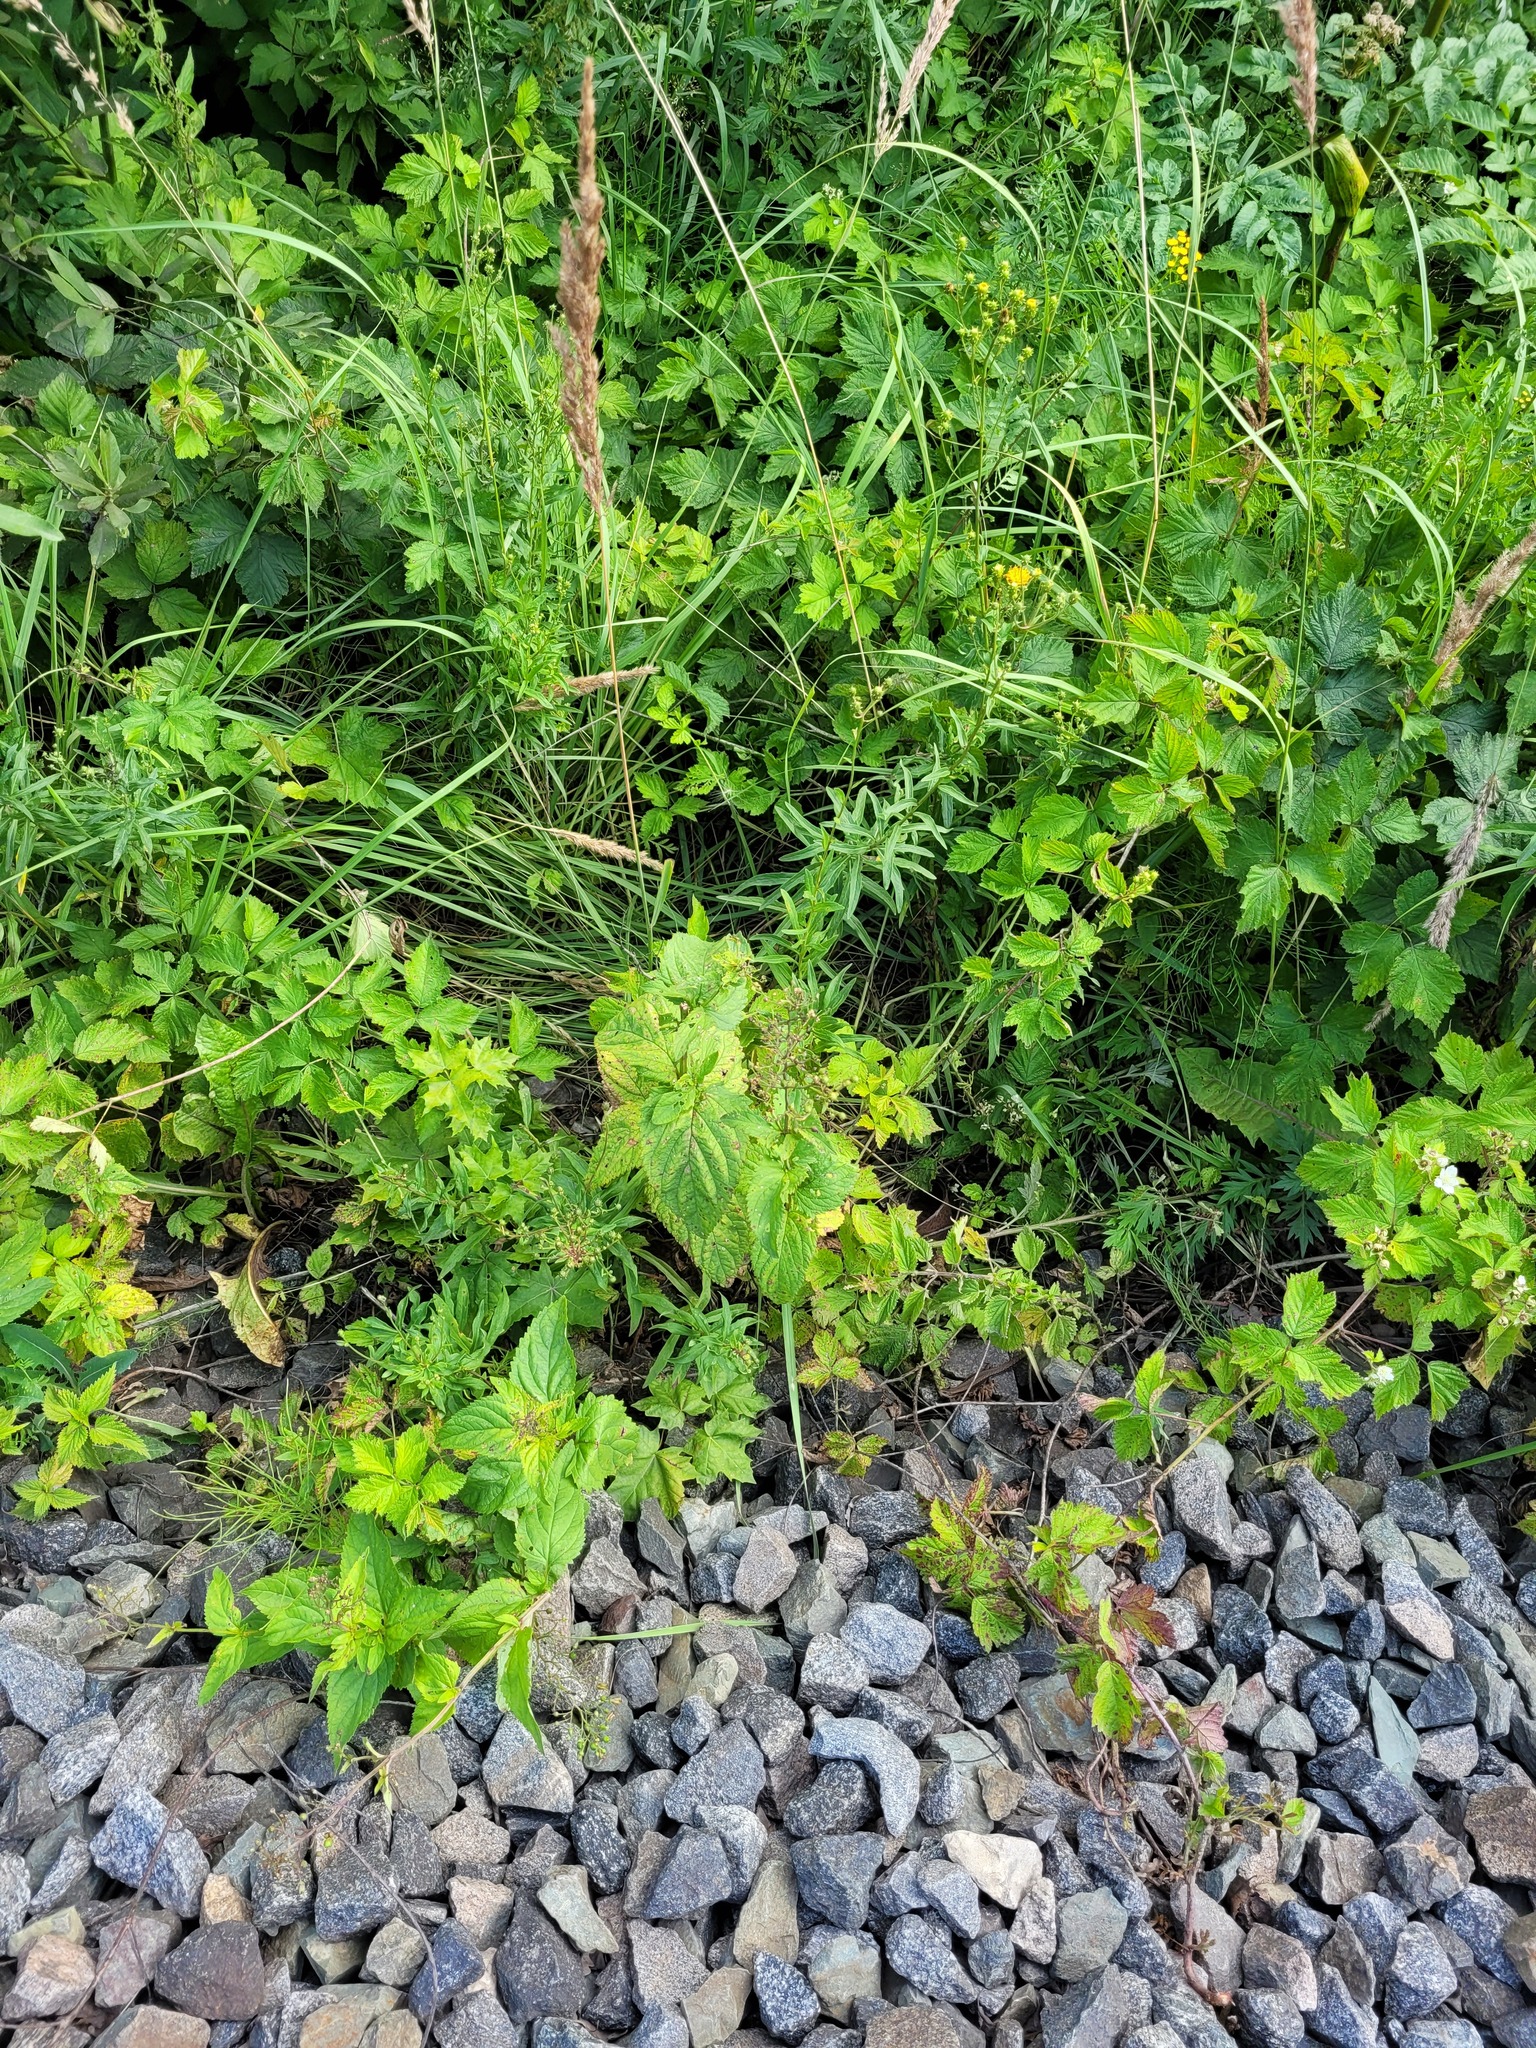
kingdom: Plantae
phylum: Tracheophyta
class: Magnoliopsida
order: Lamiales
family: Scrophulariaceae
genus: Scrophularia
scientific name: Scrophularia nodosa
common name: Common figwort
